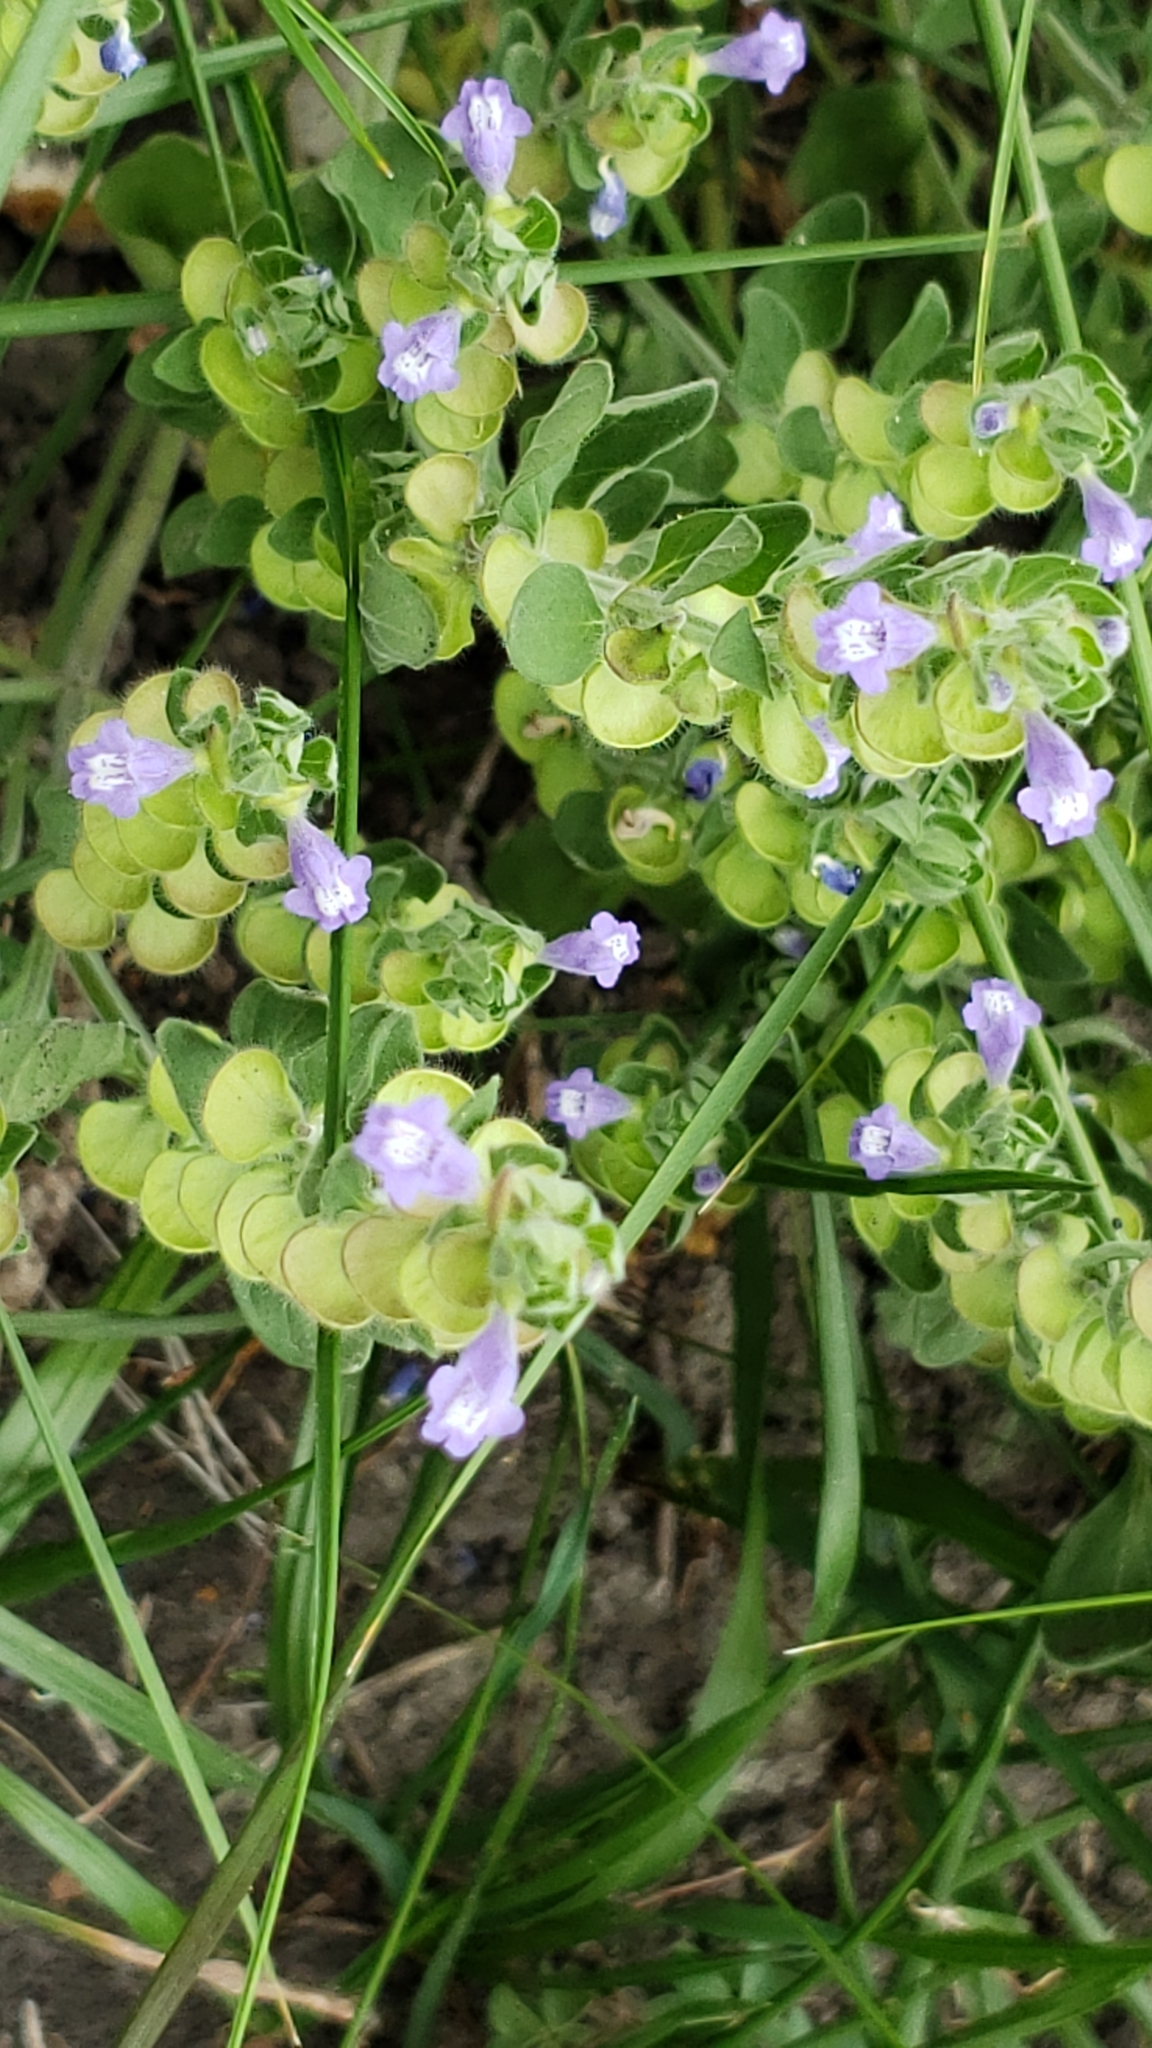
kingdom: Plantae
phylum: Tracheophyta
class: Magnoliopsida
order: Lamiales
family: Lamiaceae
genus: Scutellaria
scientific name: Scutellaria drummondii
